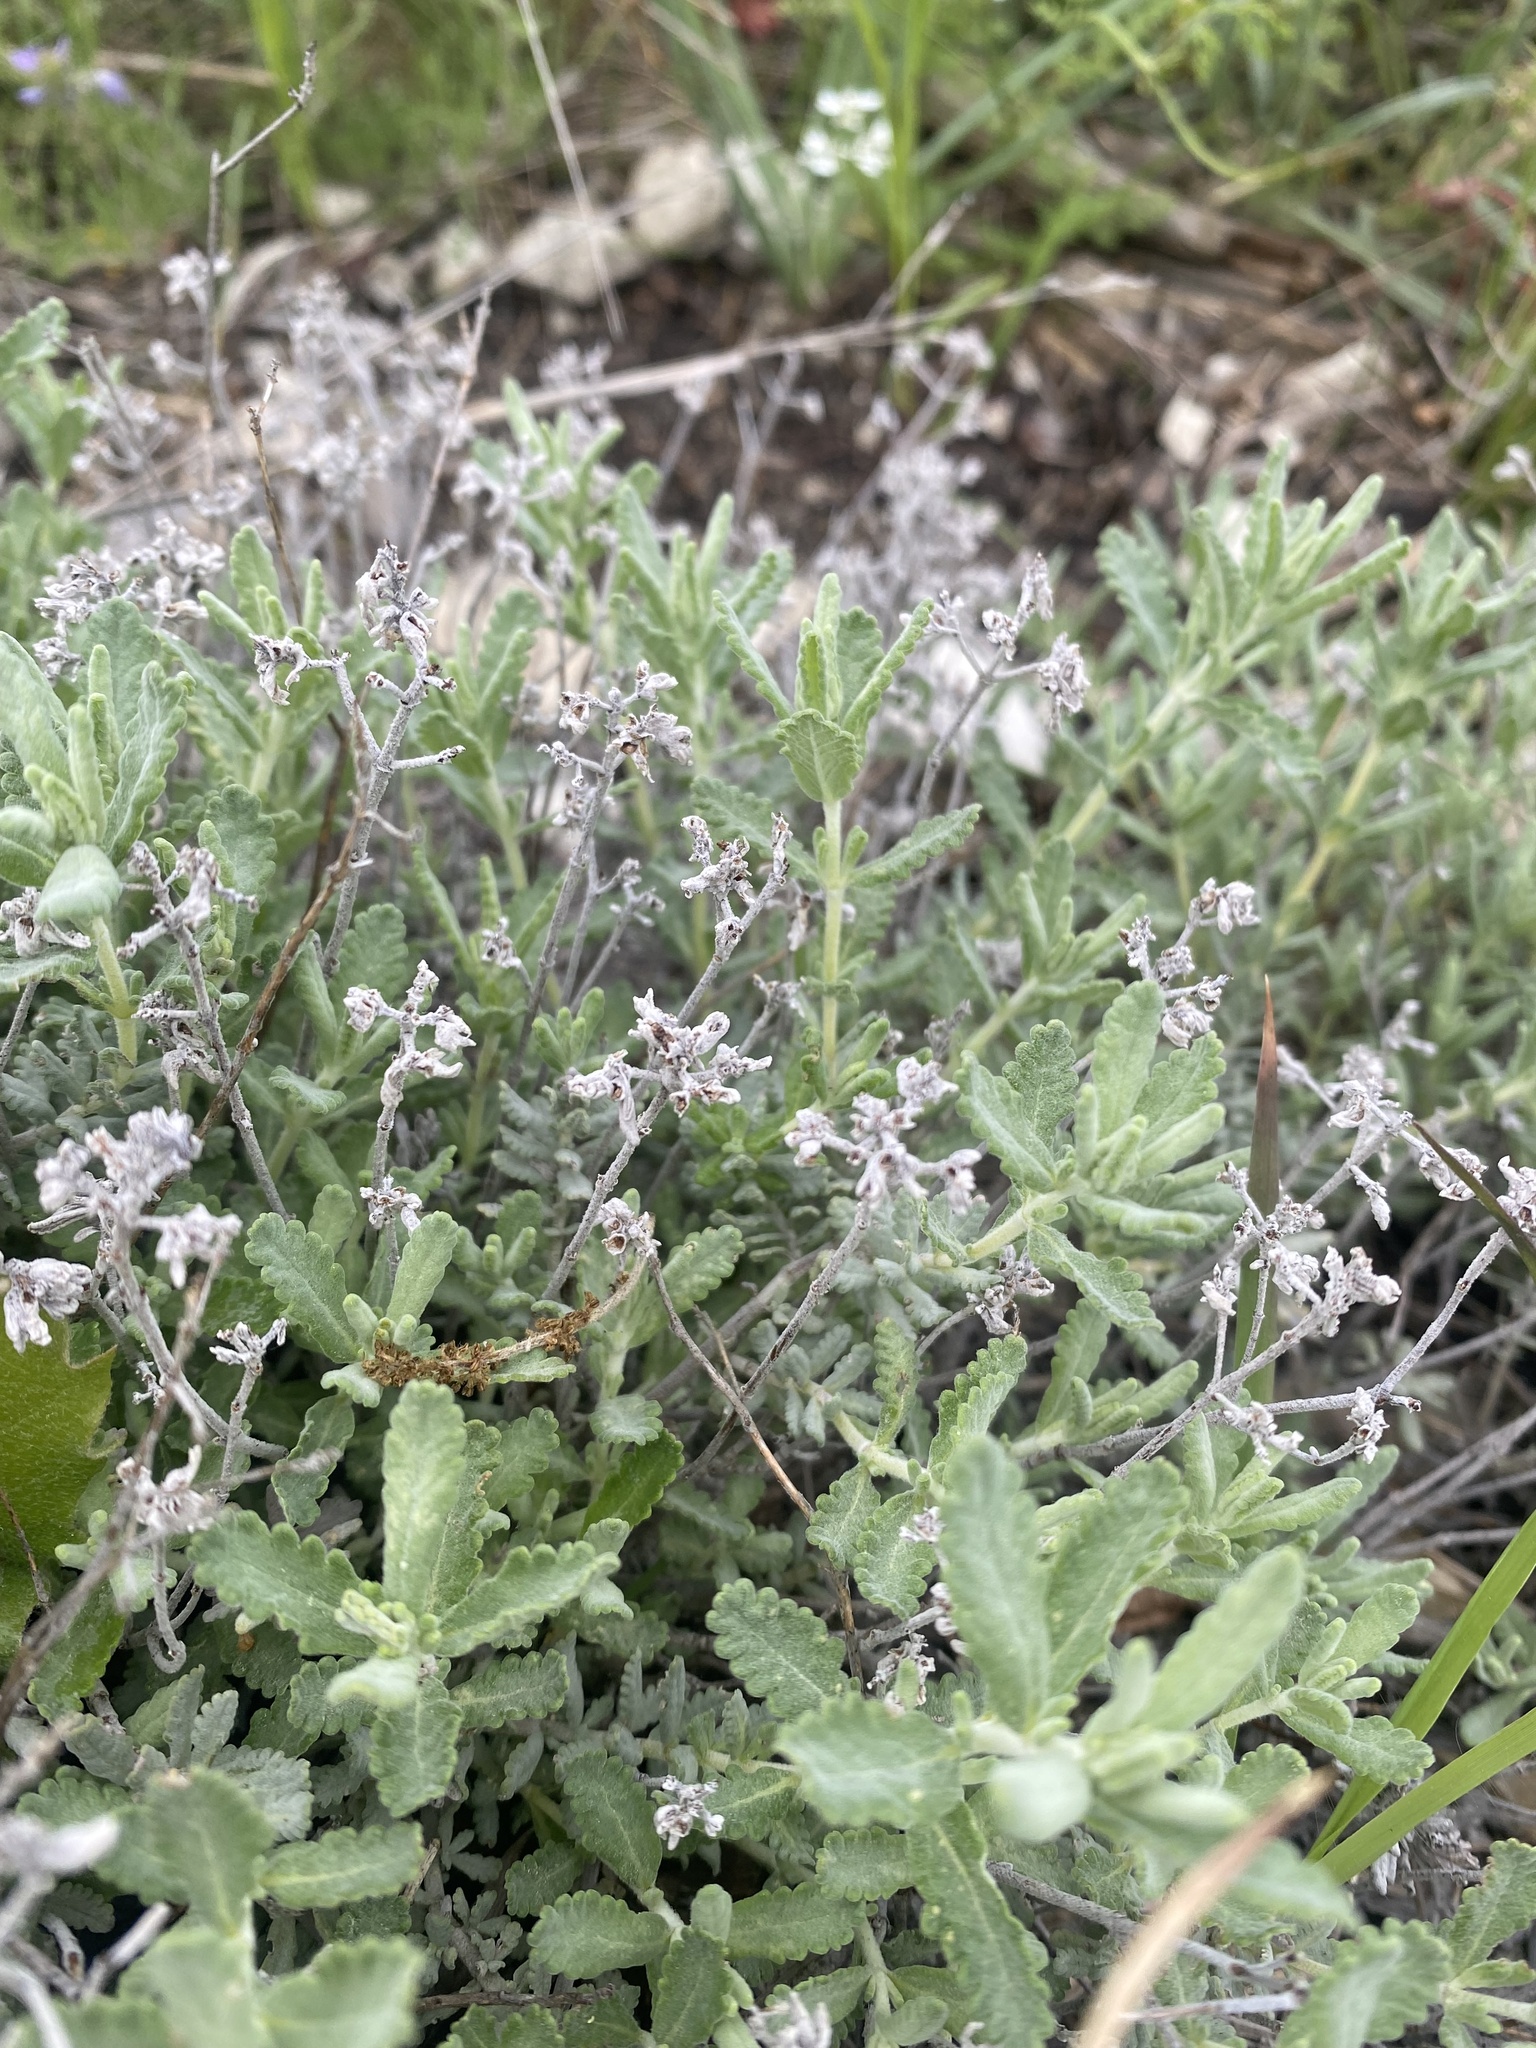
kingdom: Plantae
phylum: Tracheophyta
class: Magnoliopsida
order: Lamiales
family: Lamiaceae
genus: Teucrium
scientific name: Teucrium polium
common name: Poley
